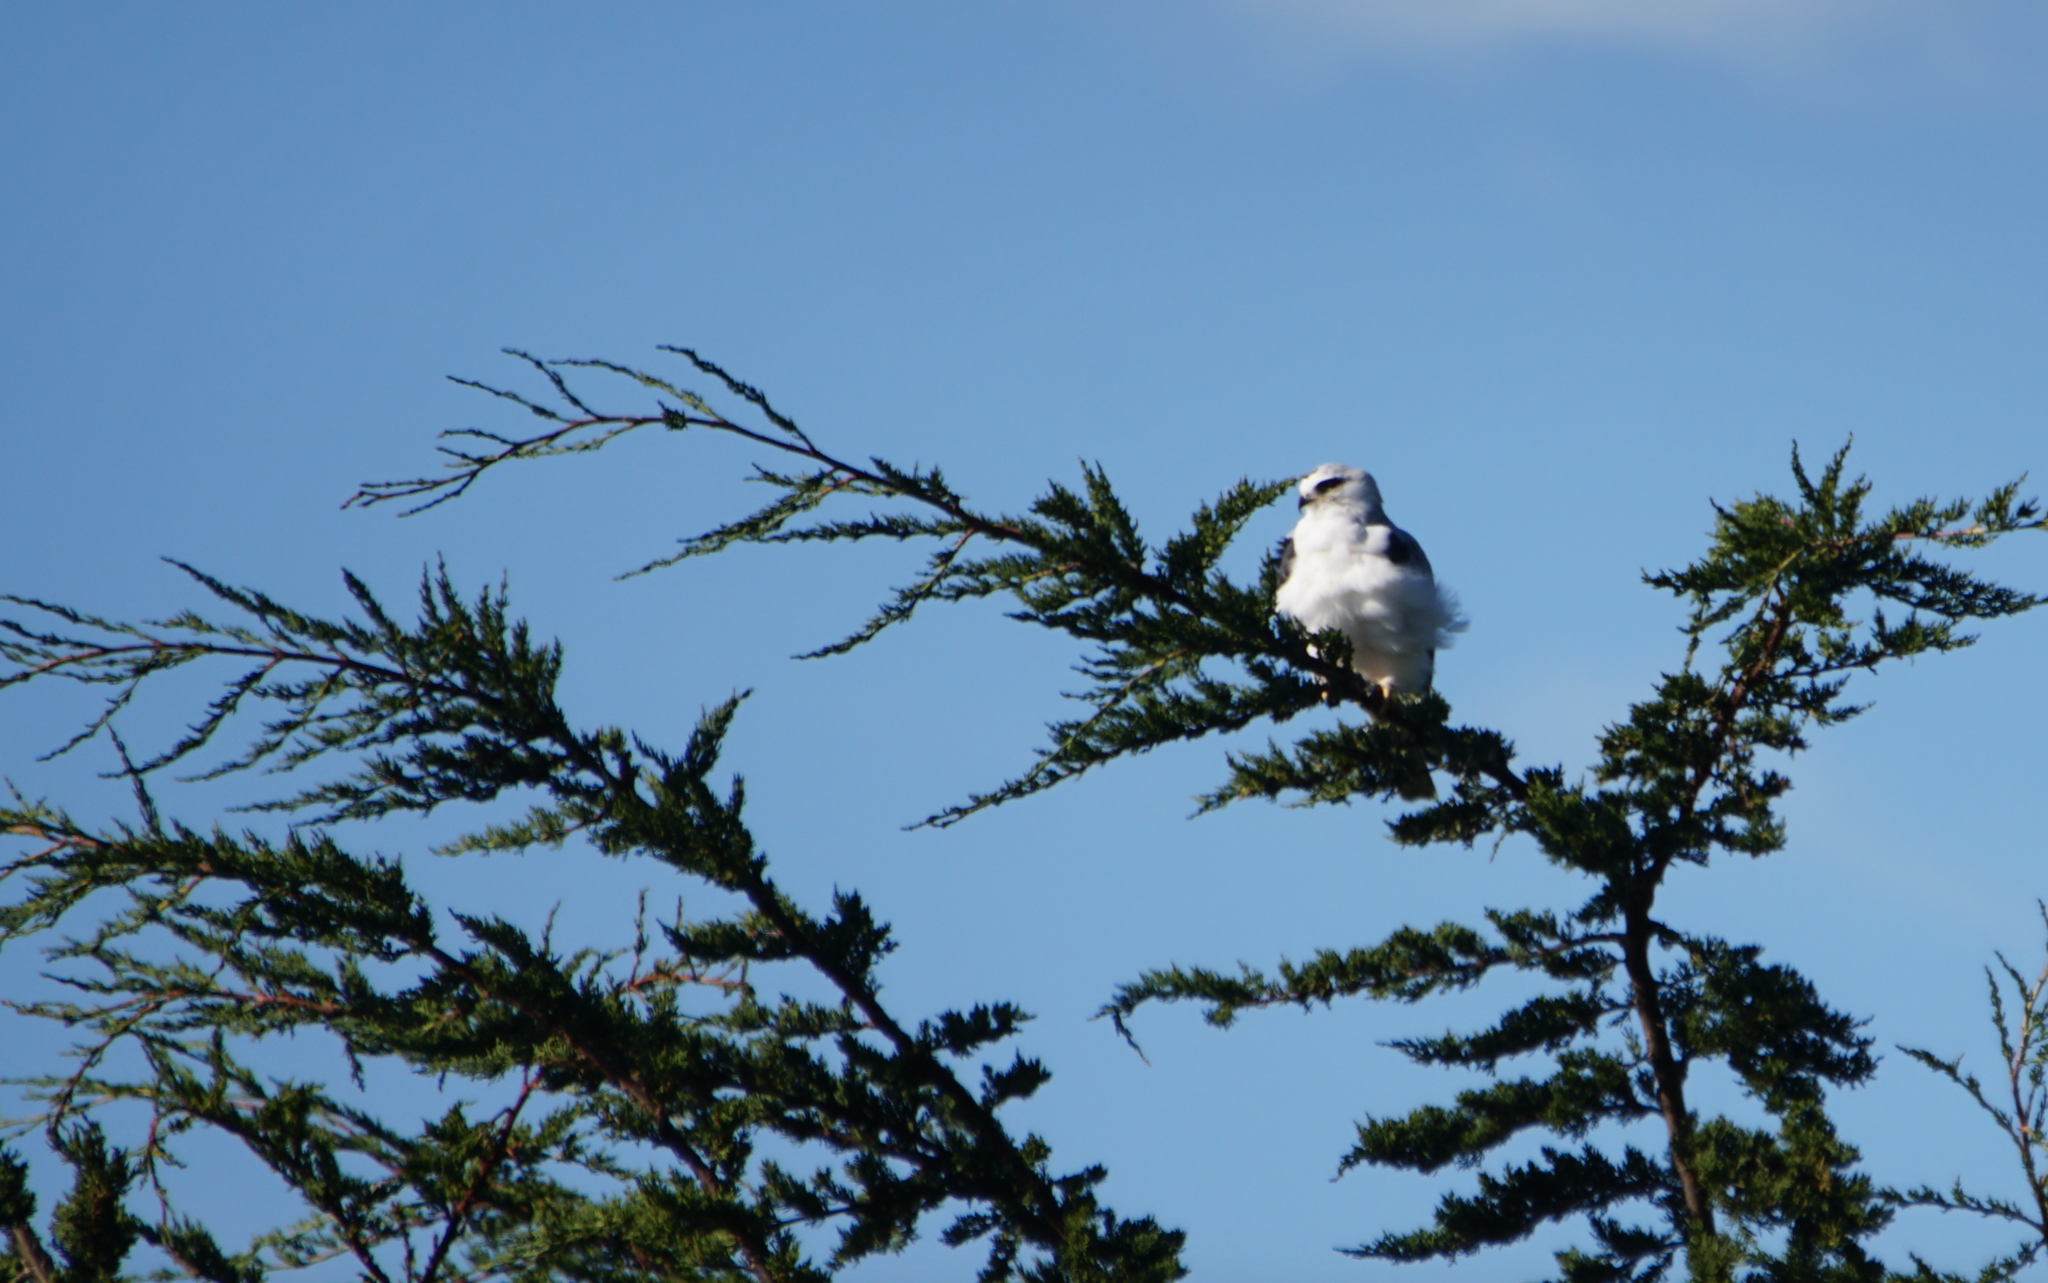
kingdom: Animalia
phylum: Chordata
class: Aves
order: Accipitriformes
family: Accipitridae
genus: Elanus
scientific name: Elanus leucurus
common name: White-tailed kite
